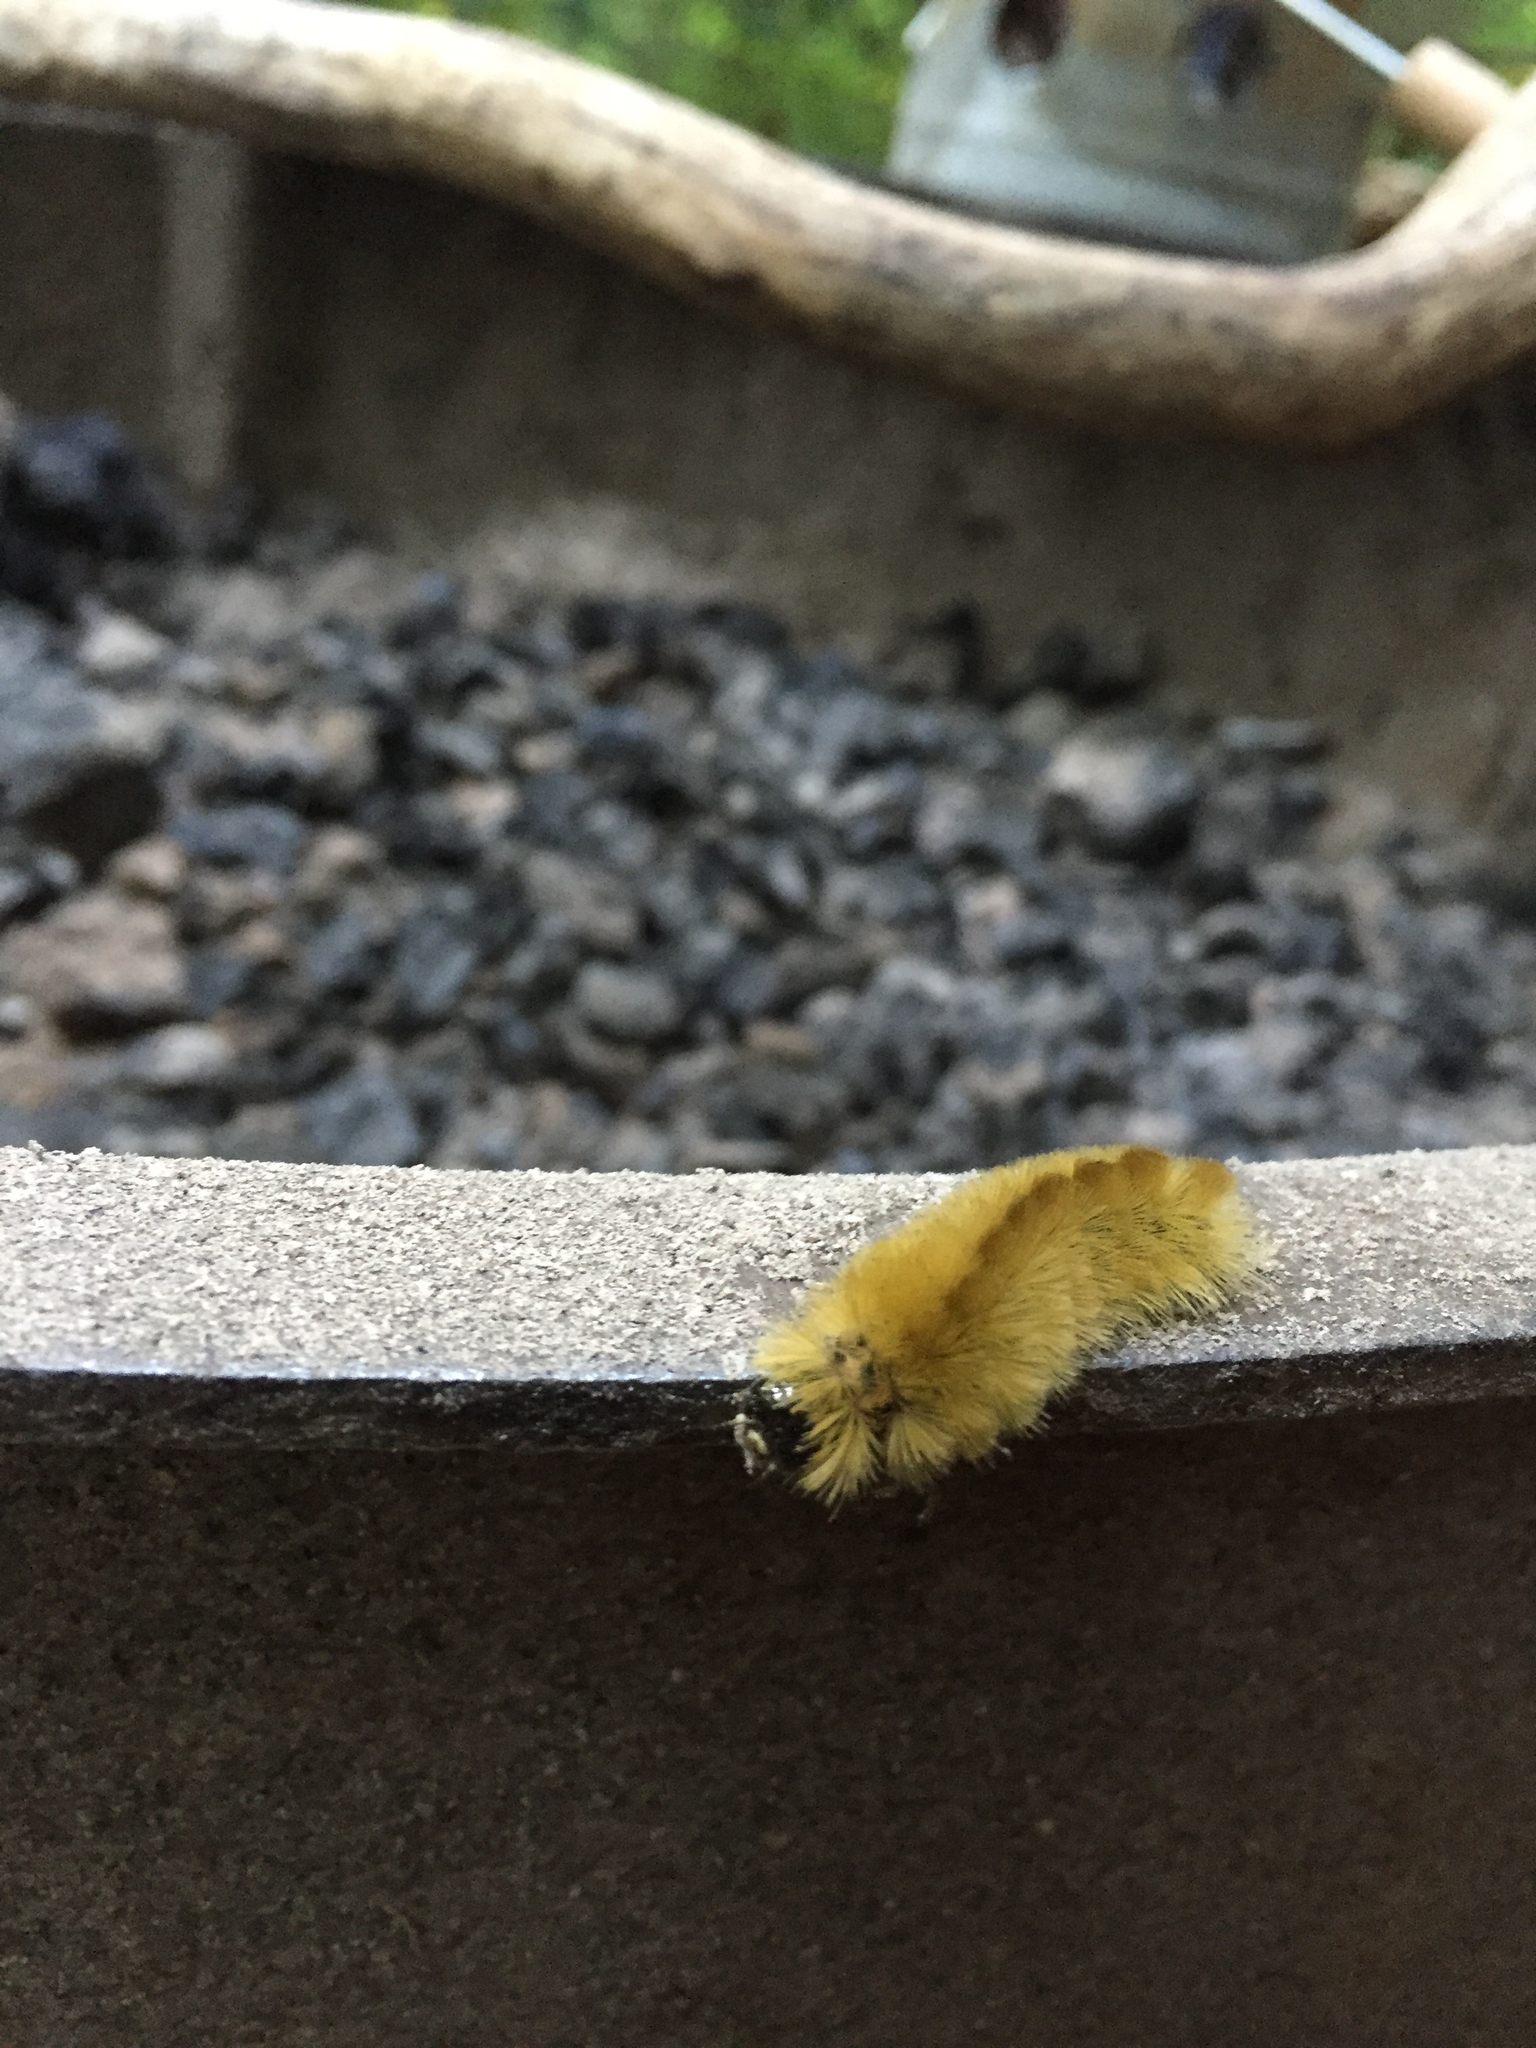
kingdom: Animalia
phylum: Arthropoda
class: Insecta
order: Lepidoptera
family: Noctuidae
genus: Acronicta
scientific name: Acronicta americana
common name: American dagger
